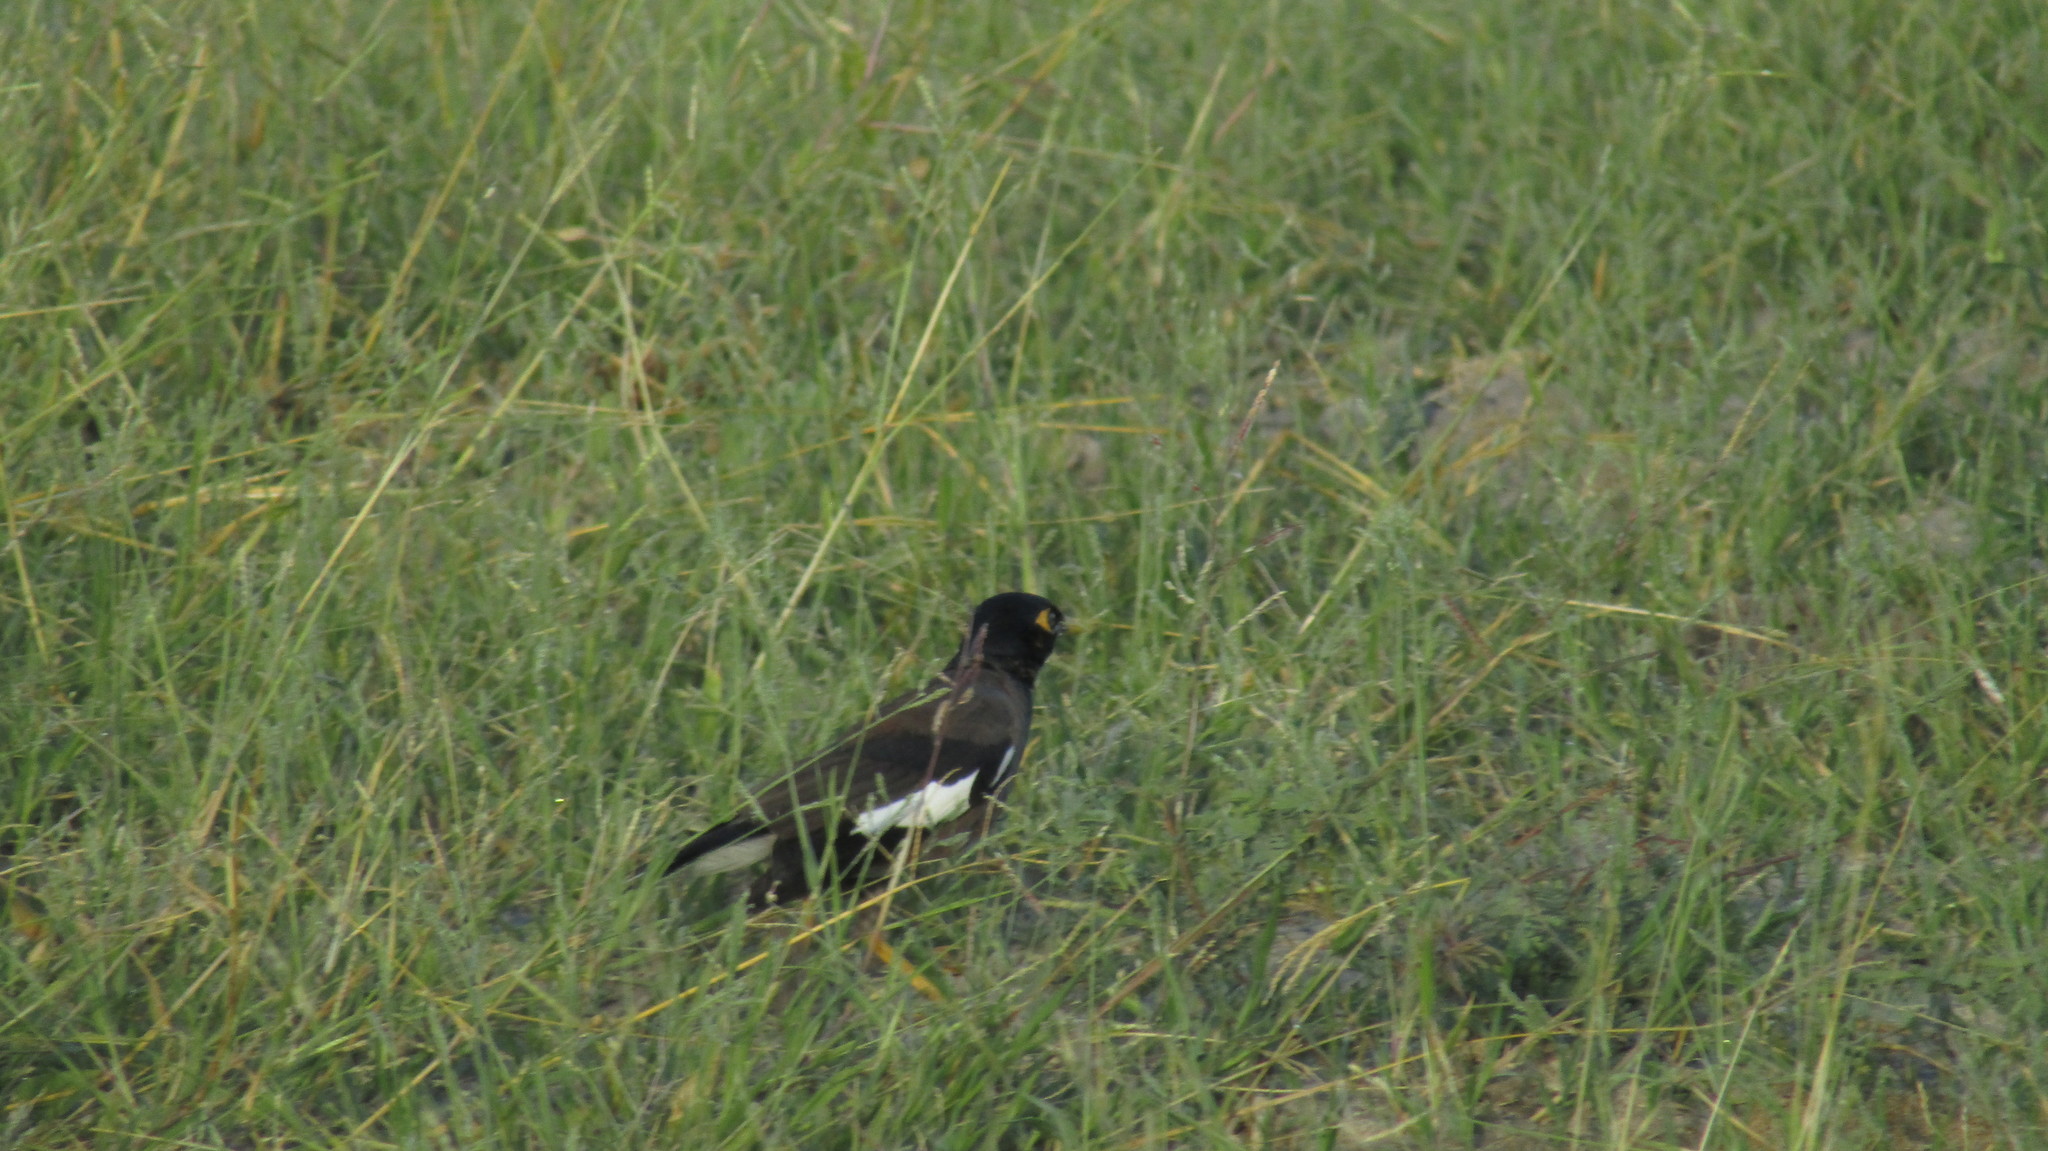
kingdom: Animalia
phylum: Chordata
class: Aves
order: Passeriformes
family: Sturnidae
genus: Acridotheres
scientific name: Acridotheres tristis
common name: Common myna
